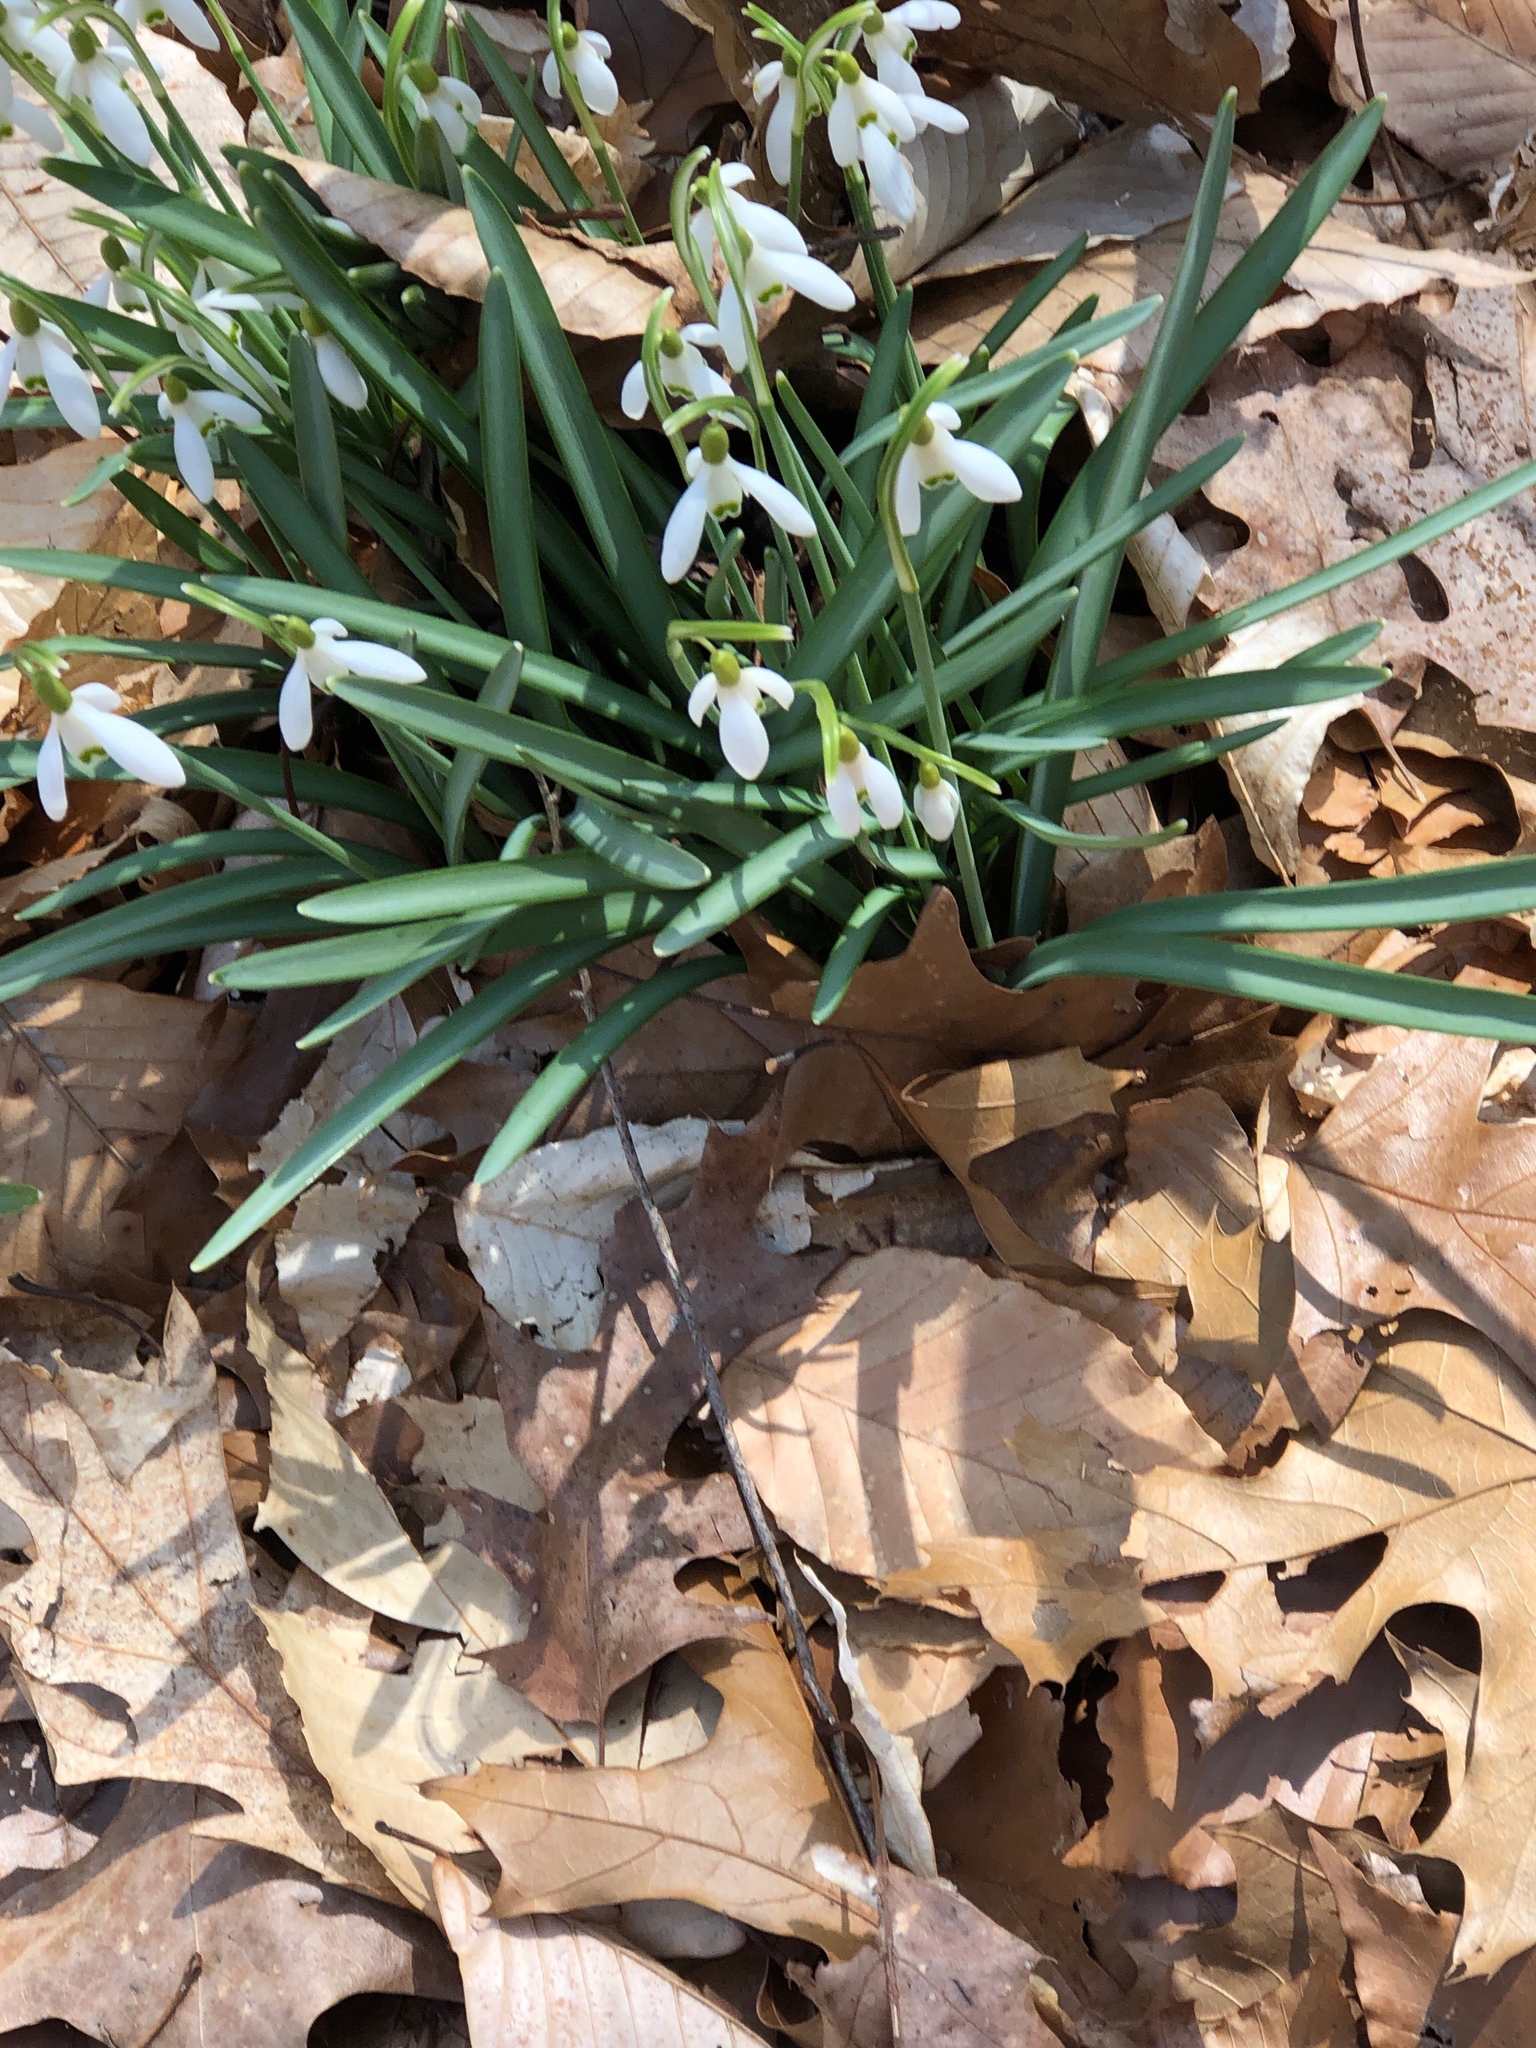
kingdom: Plantae
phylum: Tracheophyta
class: Liliopsida
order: Asparagales
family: Amaryllidaceae
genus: Galanthus
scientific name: Galanthus nivalis
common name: Snowdrop
